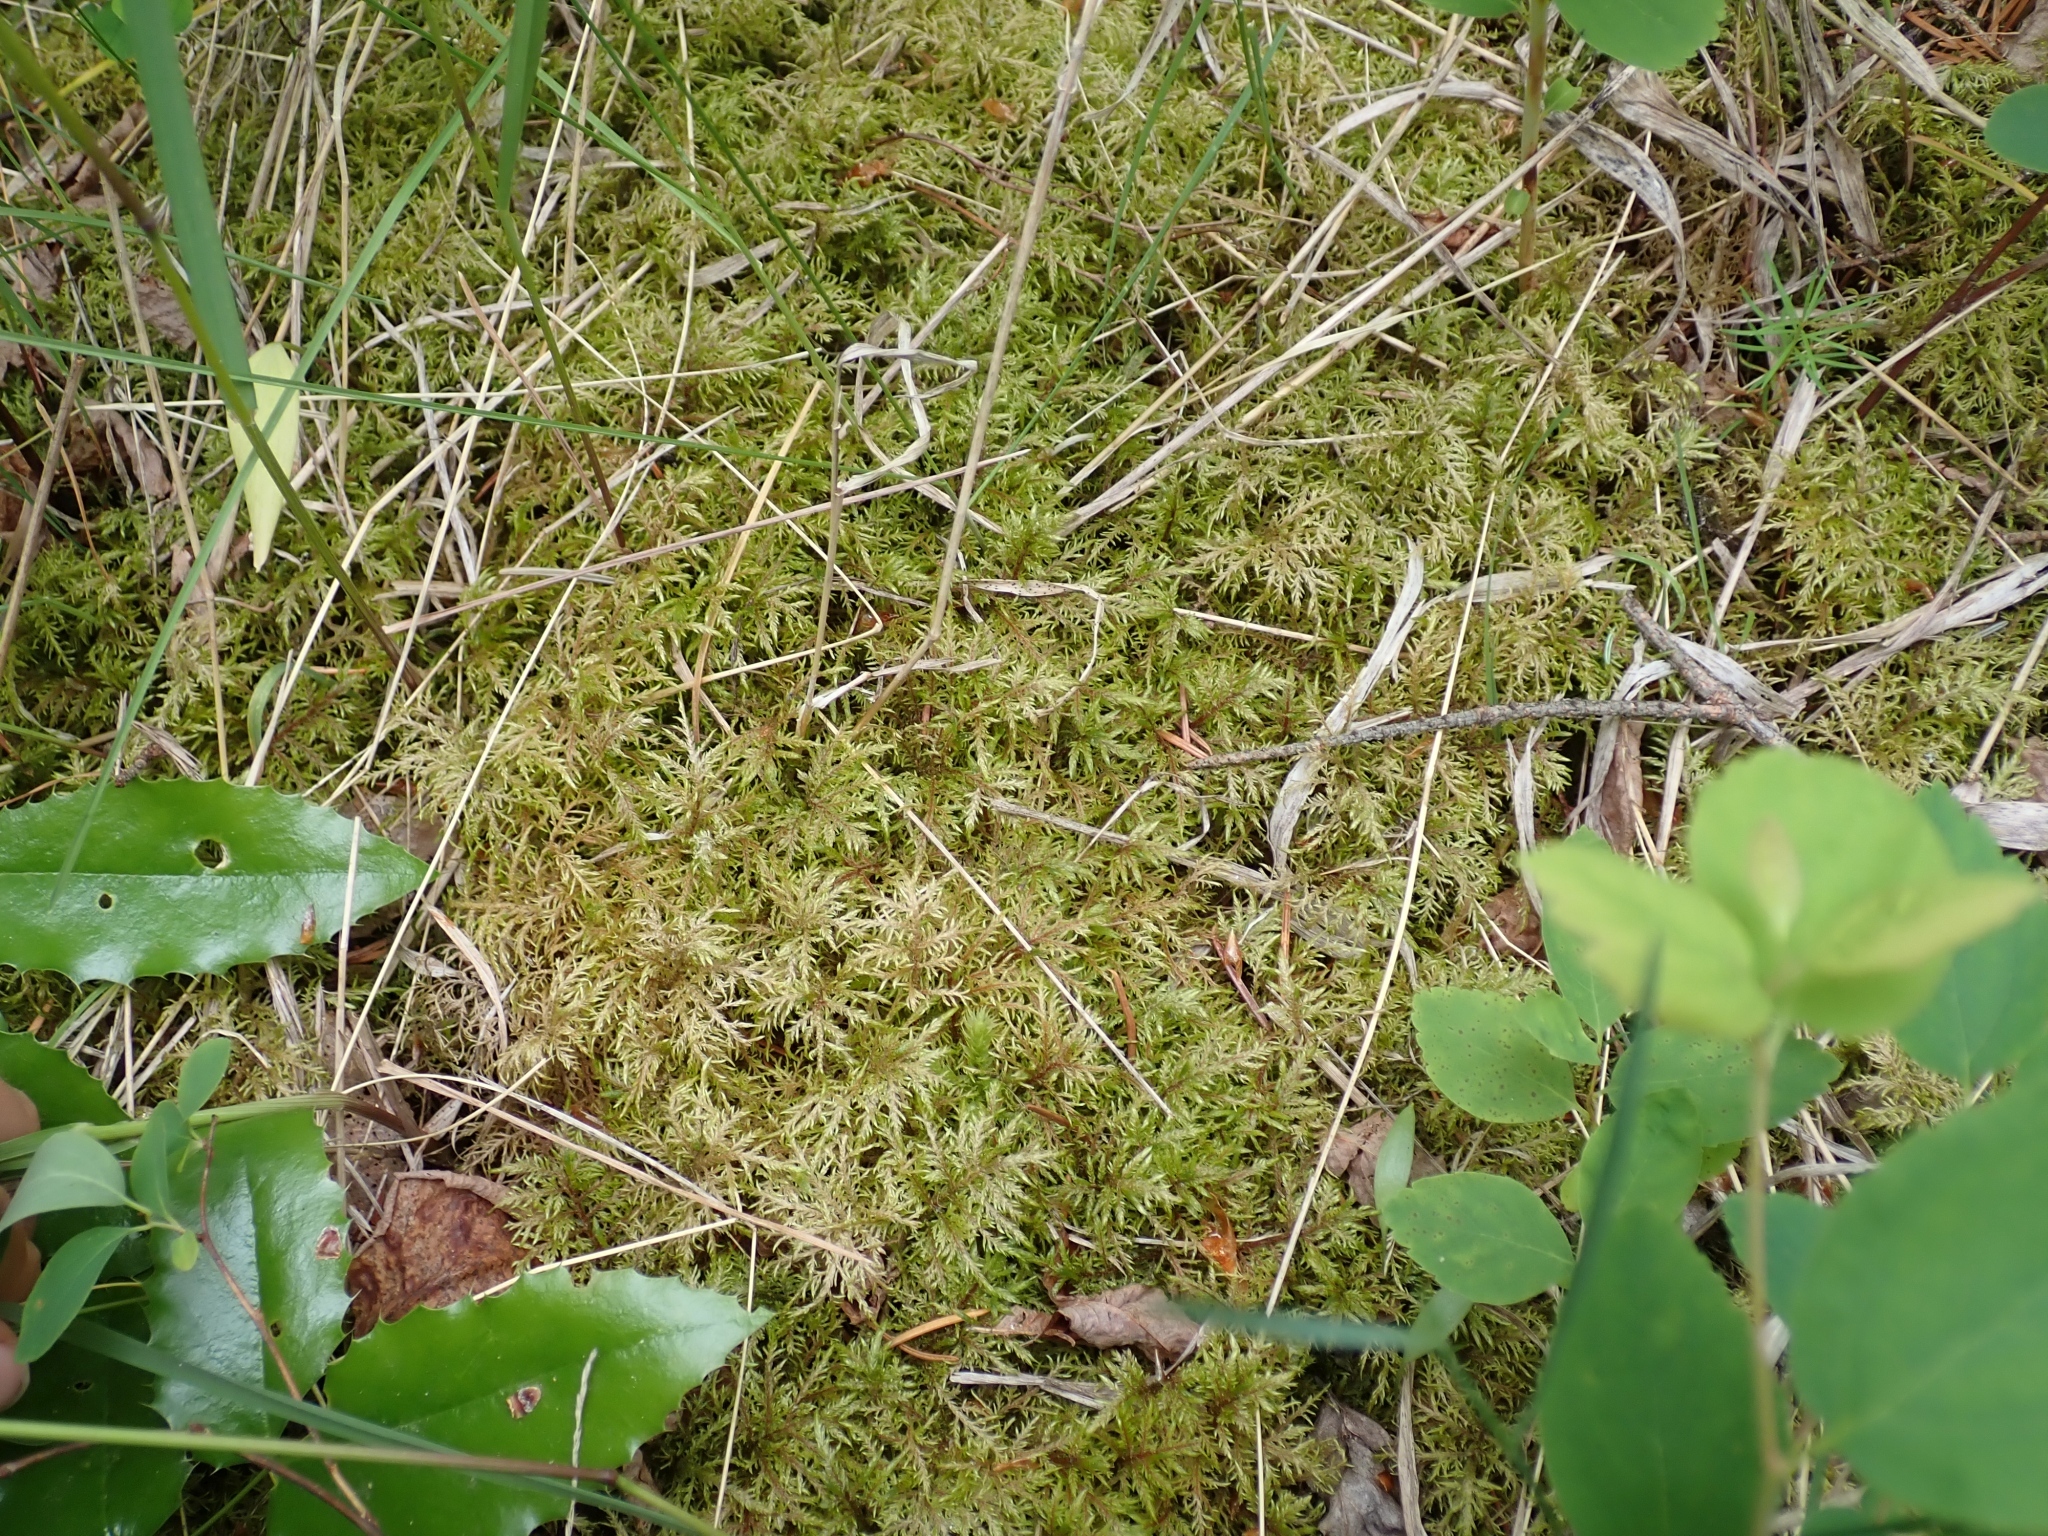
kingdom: Plantae
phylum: Bryophyta
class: Bryopsida
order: Hypnales
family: Hylocomiaceae
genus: Hylocomium
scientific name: Hylocomium splendens
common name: Stairstep moss
